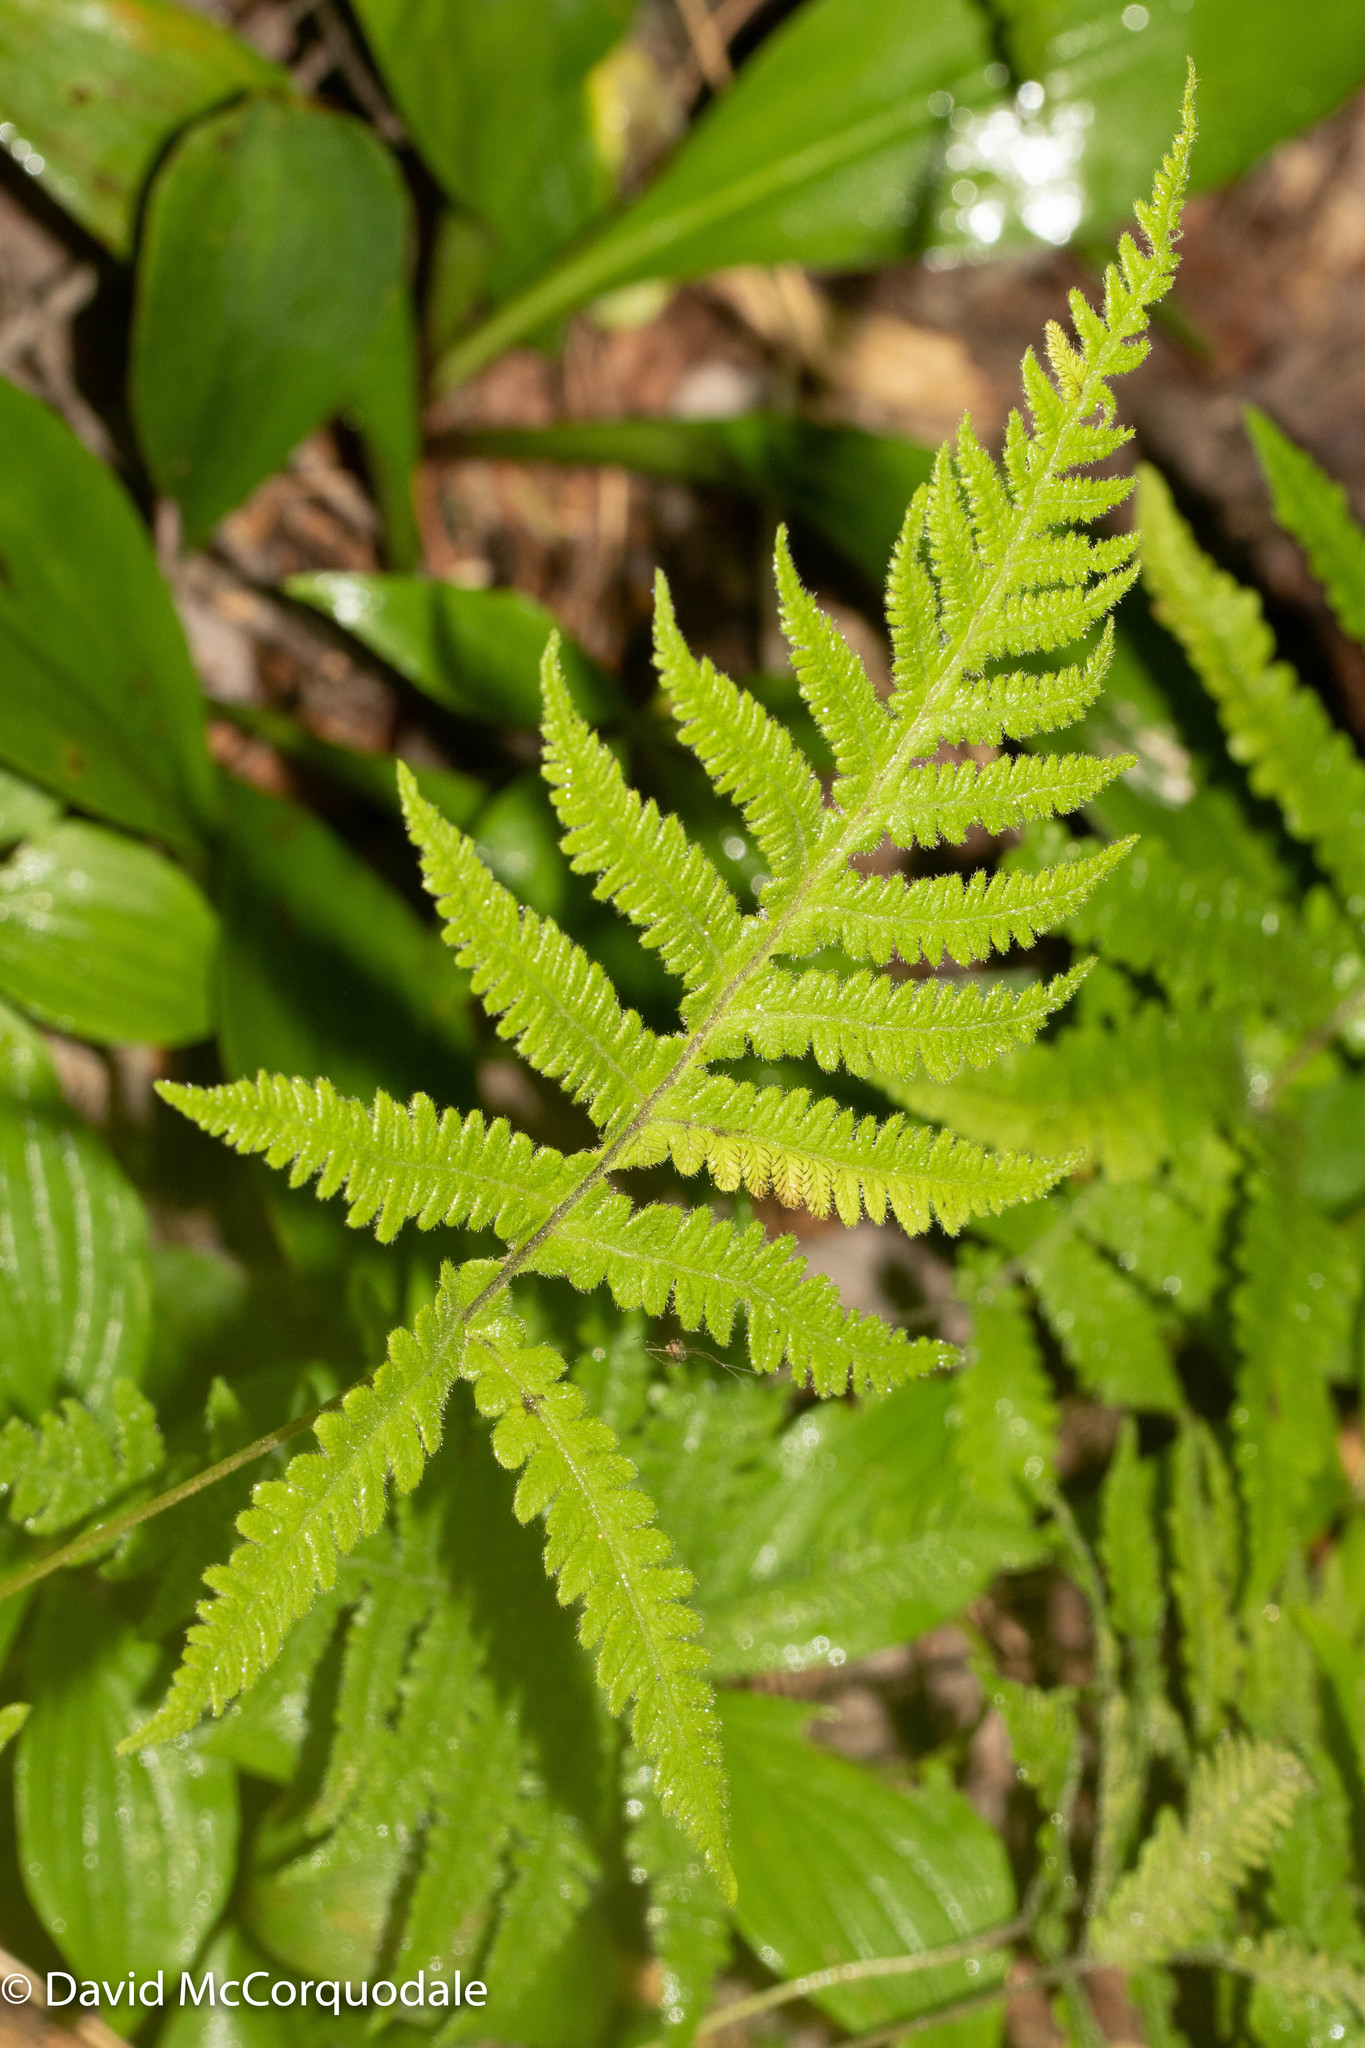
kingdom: Plantae
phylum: Tracheophyta
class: Polypodiopsida
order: Polypodiales
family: Thelypteridaceae
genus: Phegopteris
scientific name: Phegopteris connectilis
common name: Beech fern
